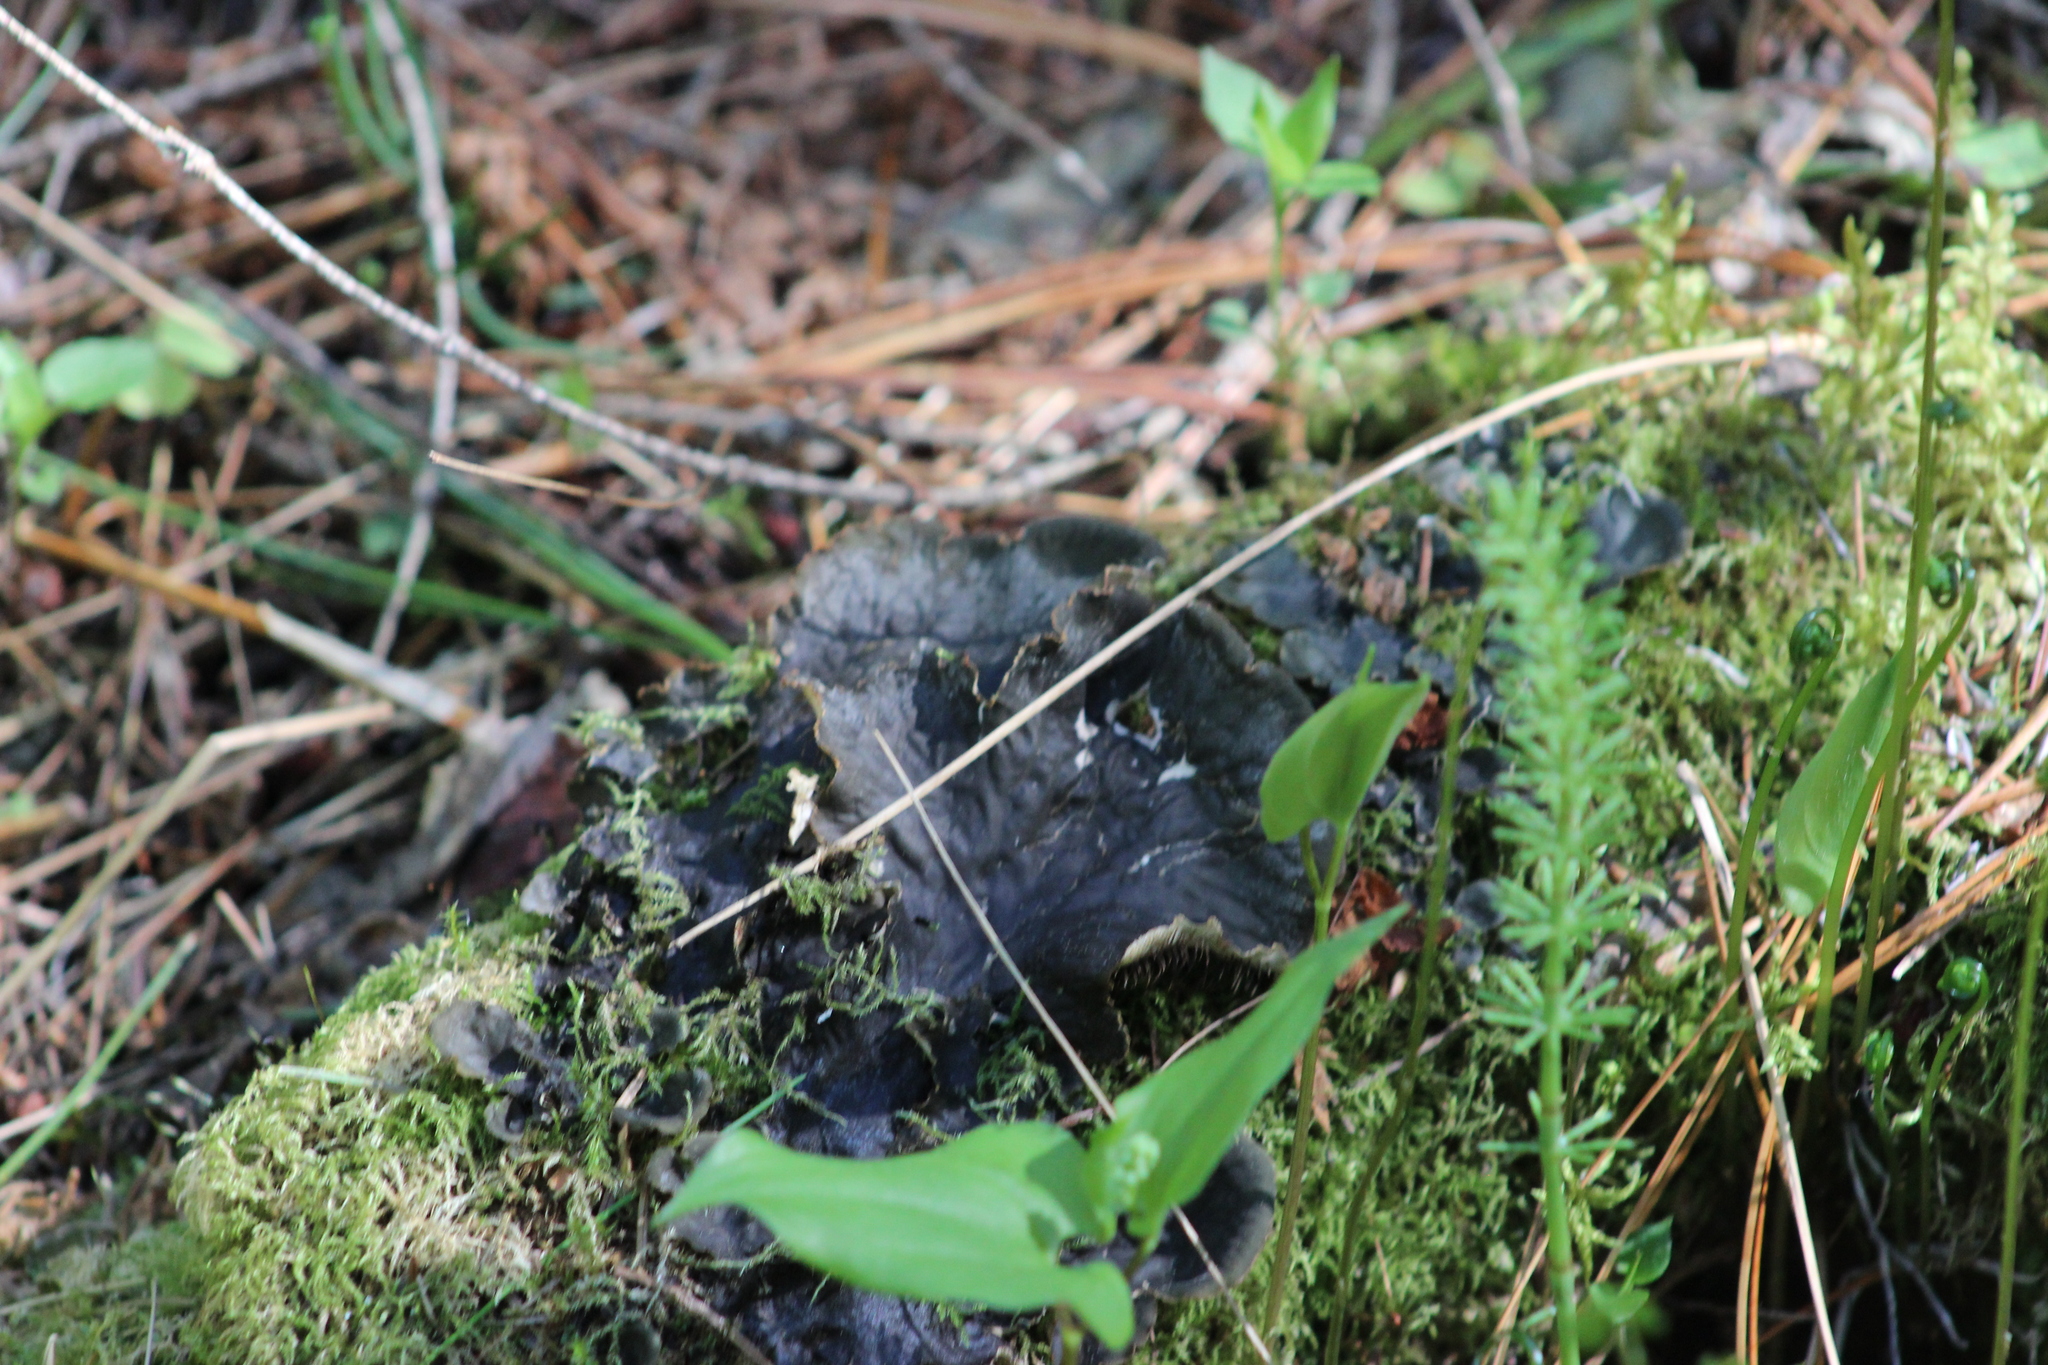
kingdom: Fungi
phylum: Ascomycota
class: Lecanoromycetes
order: Peltigerales
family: Peltigeraceae
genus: Peltigera
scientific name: Peltigera neopolydactyla
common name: Carpet pelt
